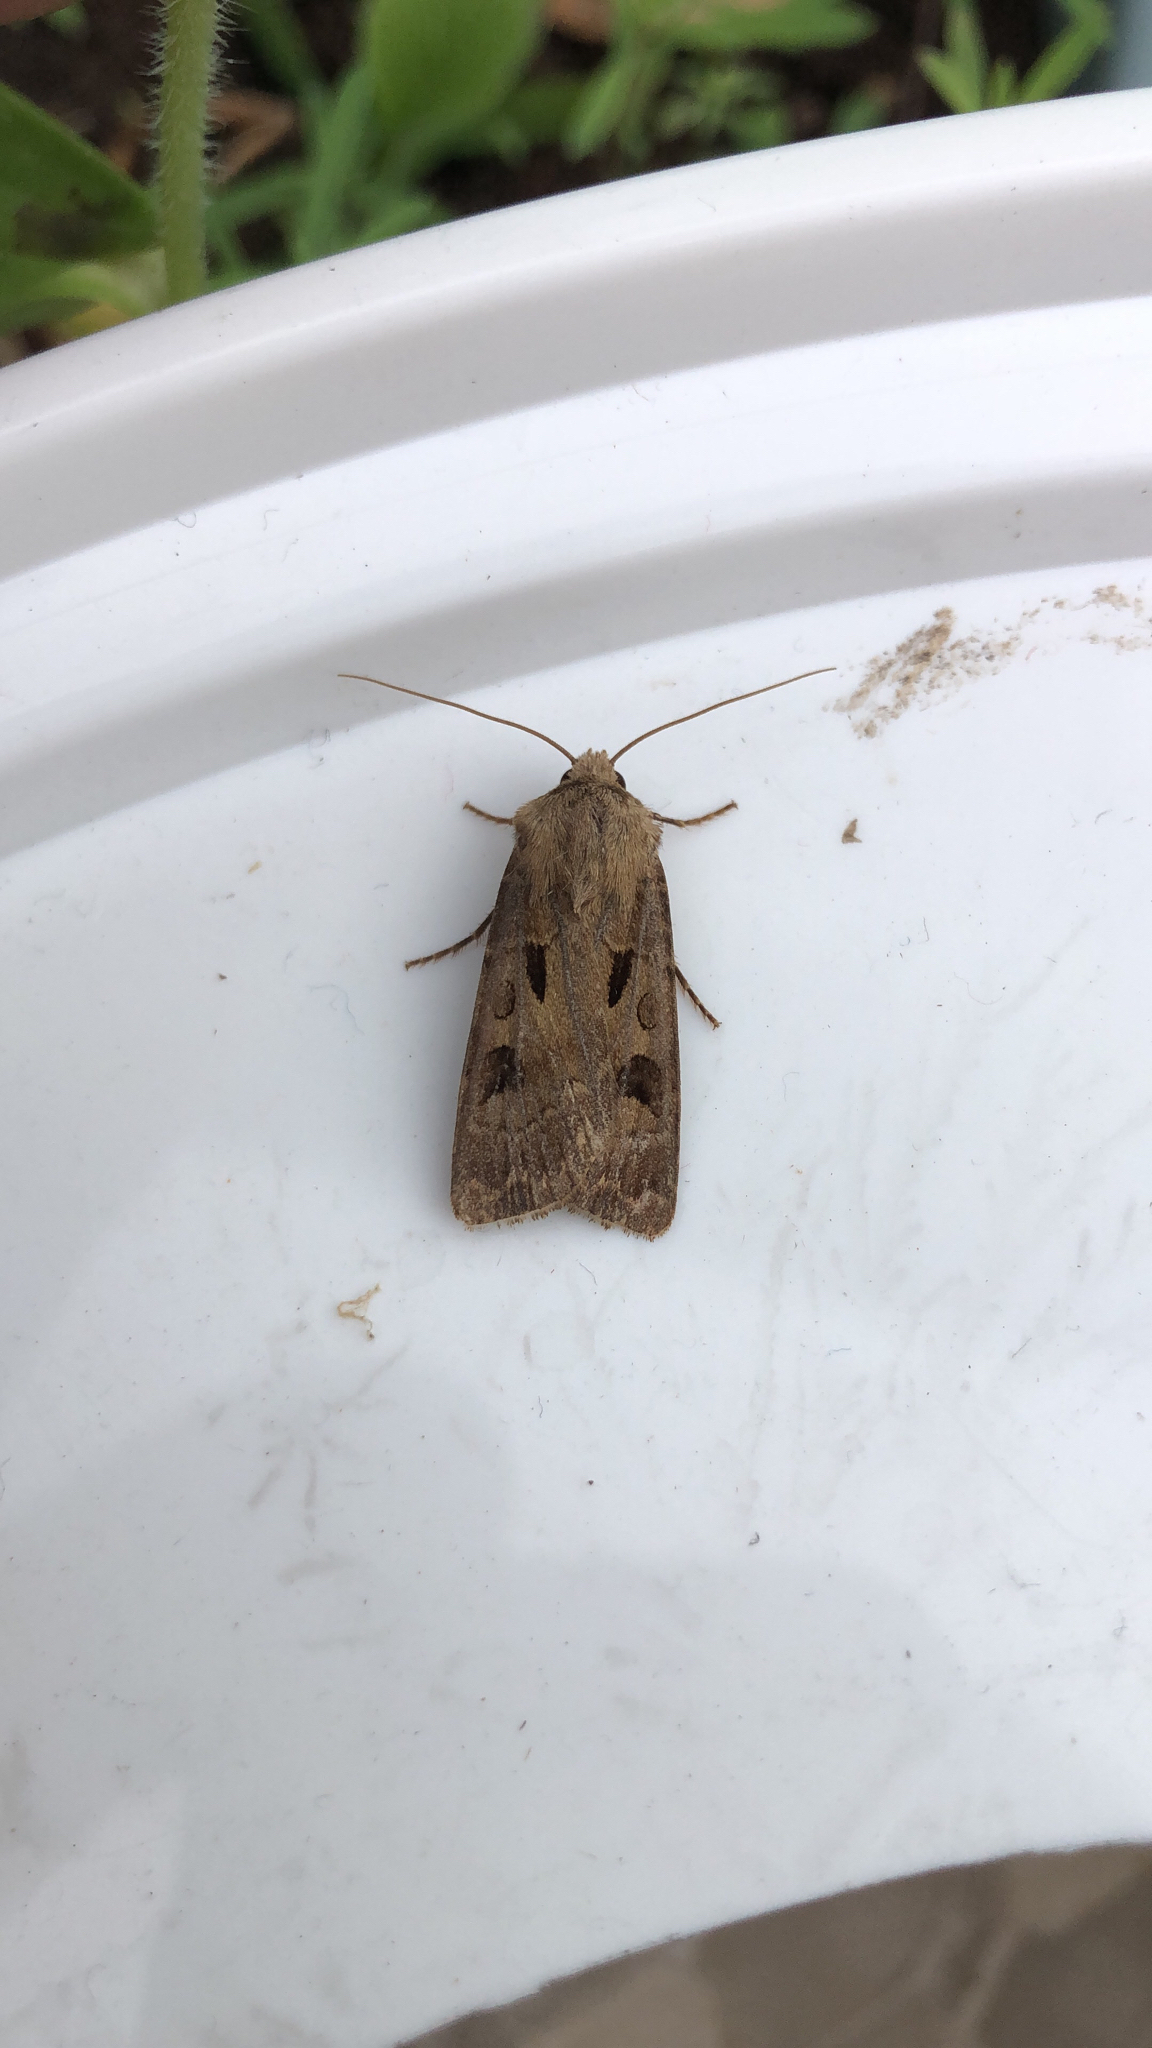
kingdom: Animalia
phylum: Arthropoda
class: Insecta
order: Lepidoptera
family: Noctuidae
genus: Agrotis
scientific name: Agrotis exclamationis
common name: Heart and dart
